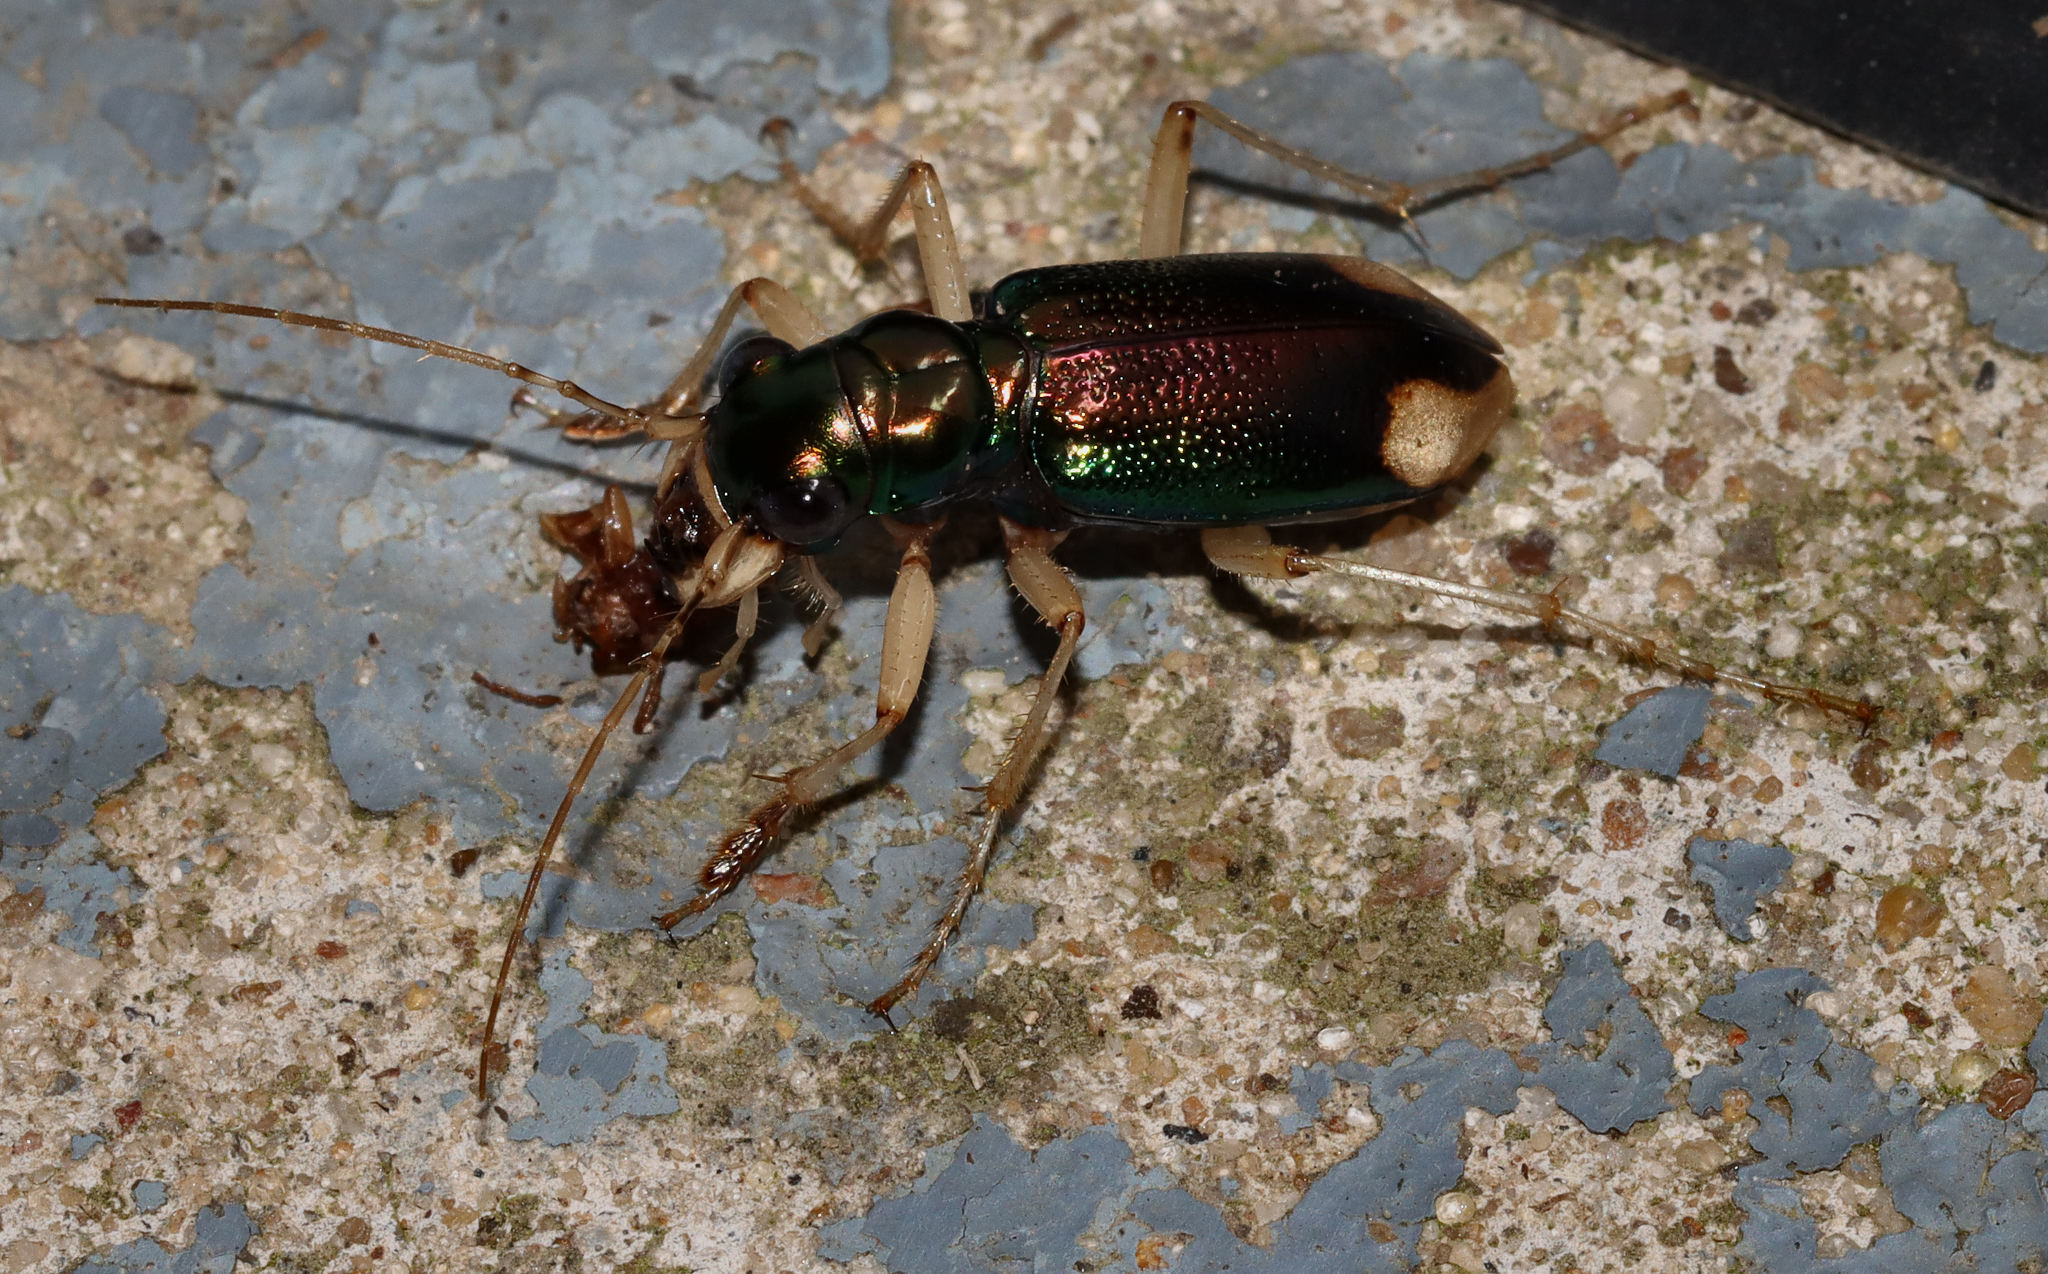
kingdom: Animalia
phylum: Arthropoda
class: Insecta
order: Coleoptera
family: Carabidae
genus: Tetracha
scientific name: Tetracha carolina
